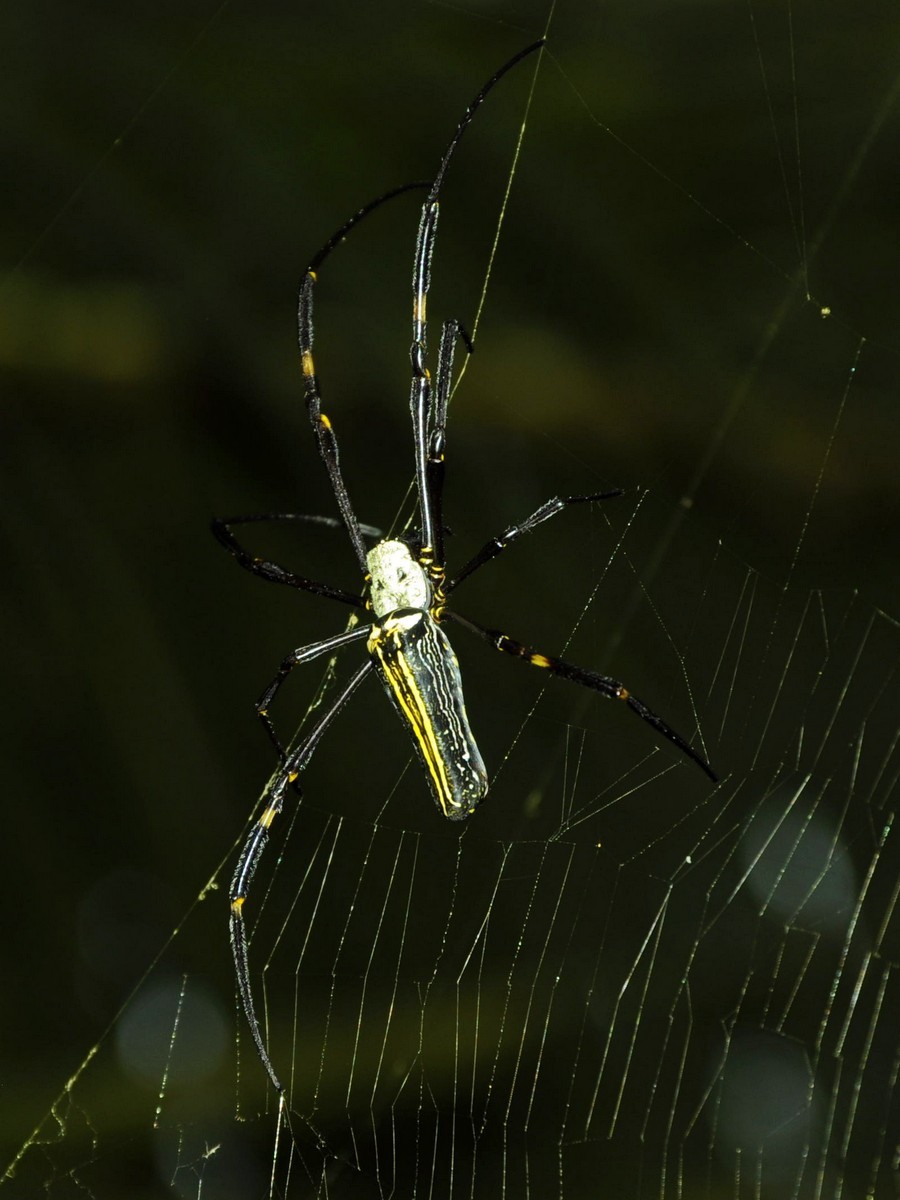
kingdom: Animalia
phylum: Arthropoda
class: Arachnida
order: Araneae
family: Araneidae
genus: Nephila
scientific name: Nephila pilipes
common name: Giant golden orb weaver
